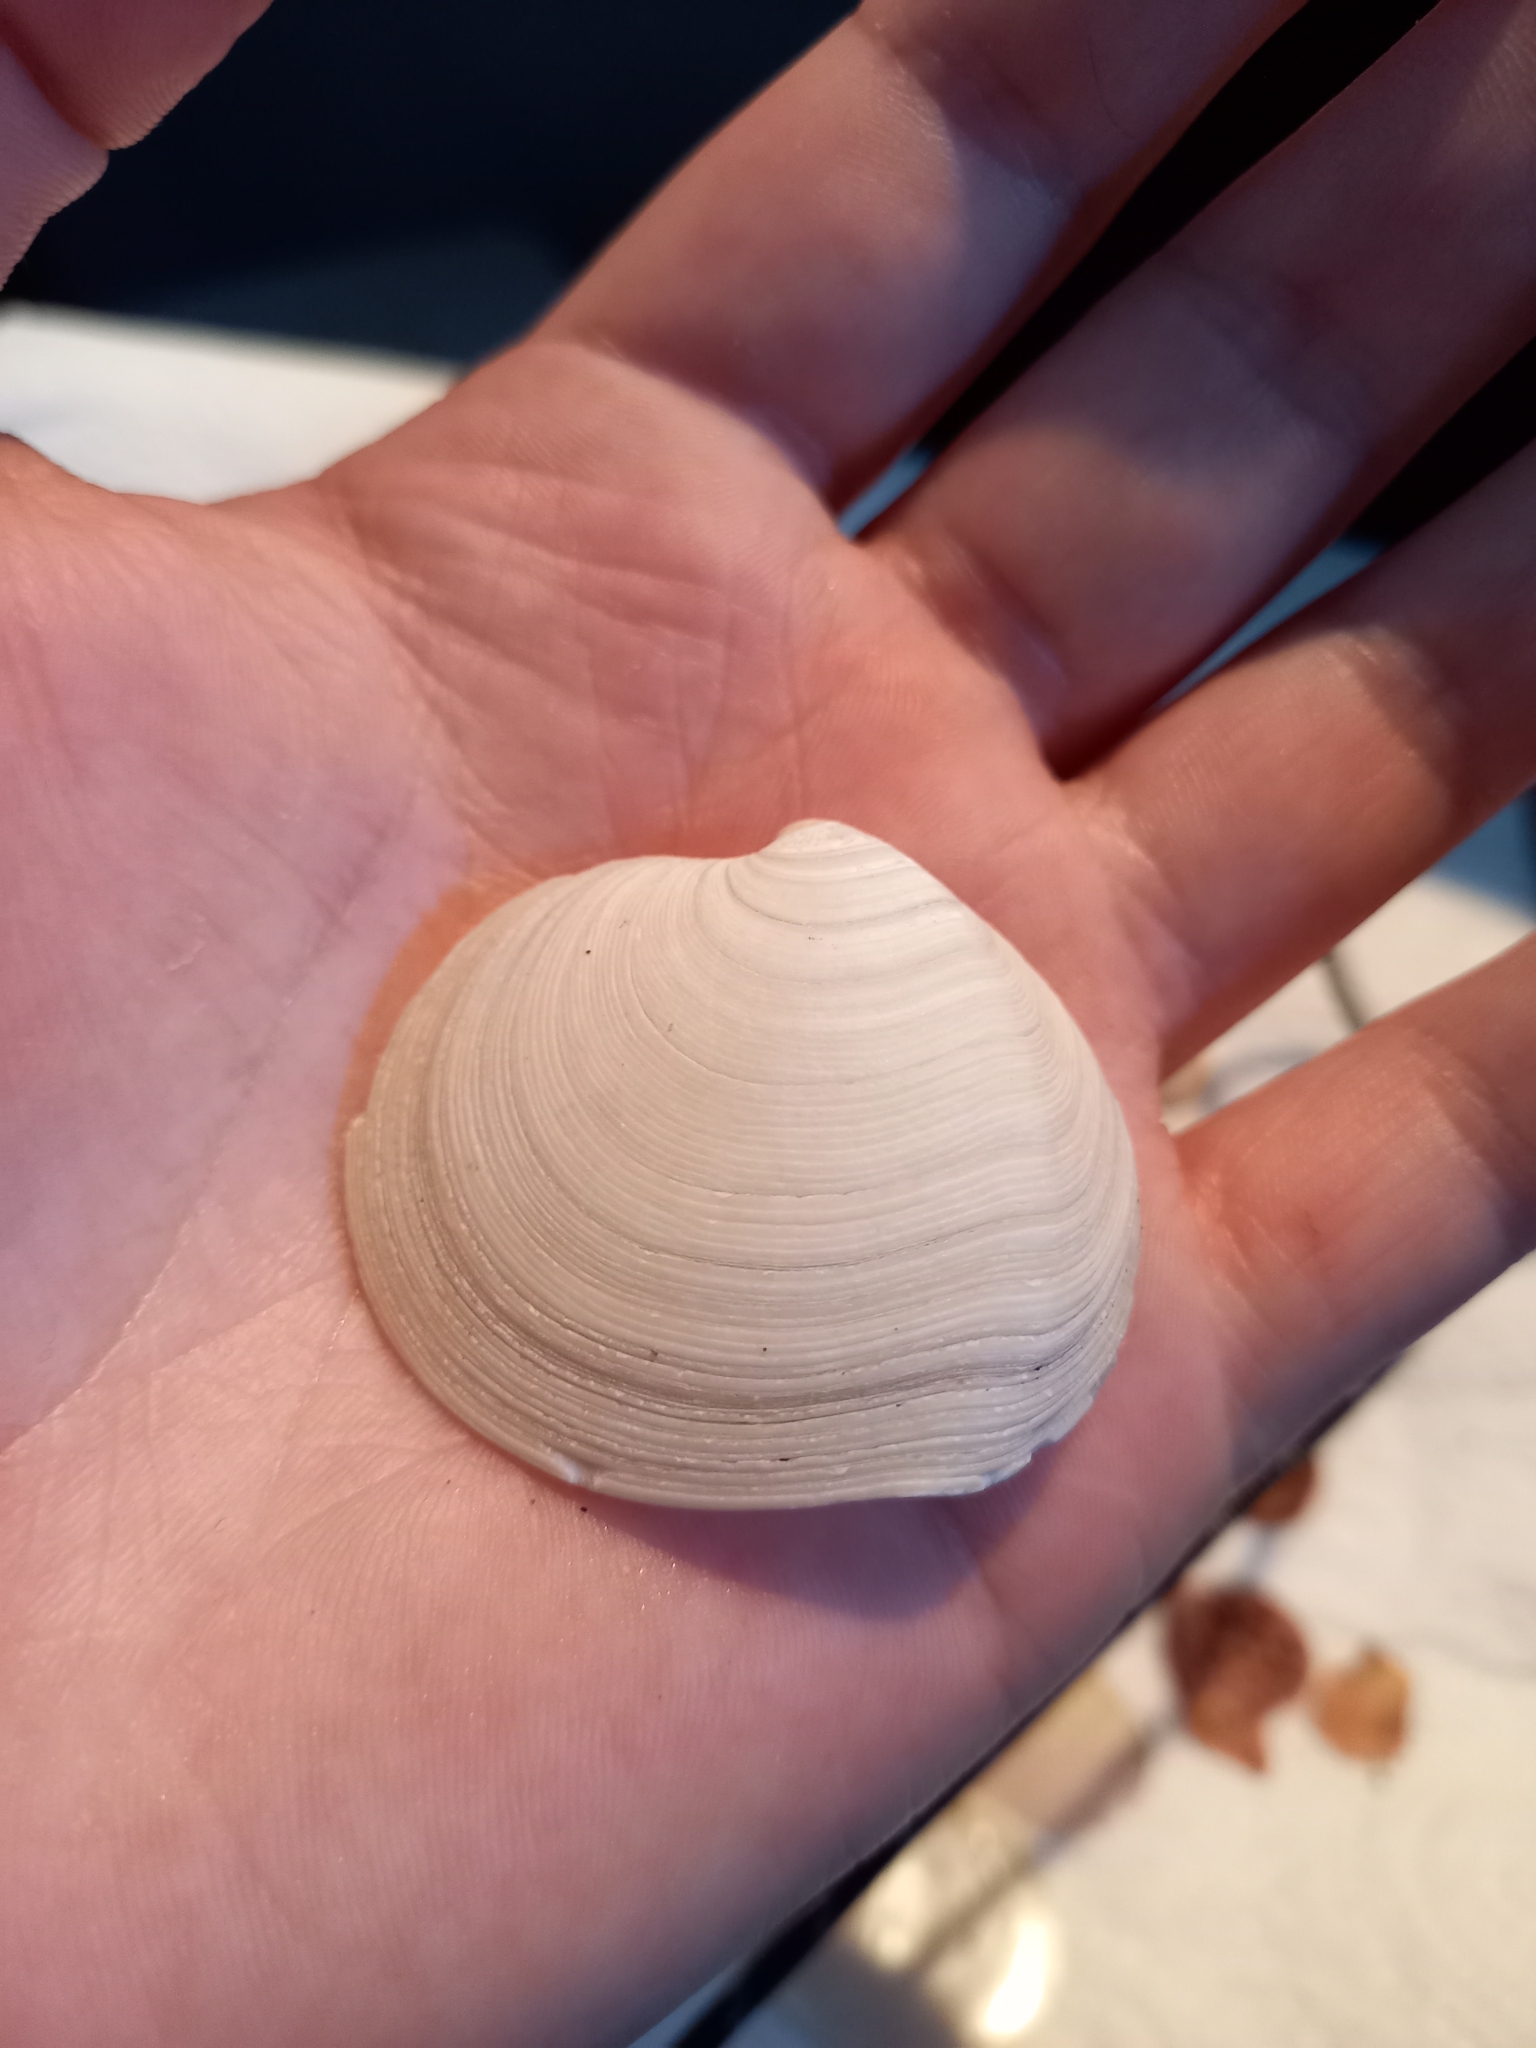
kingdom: Animalia
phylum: Mollusca
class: Bivalvia
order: Venerida
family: Veneridae
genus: Dosinia
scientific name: Dosinia subrosea
